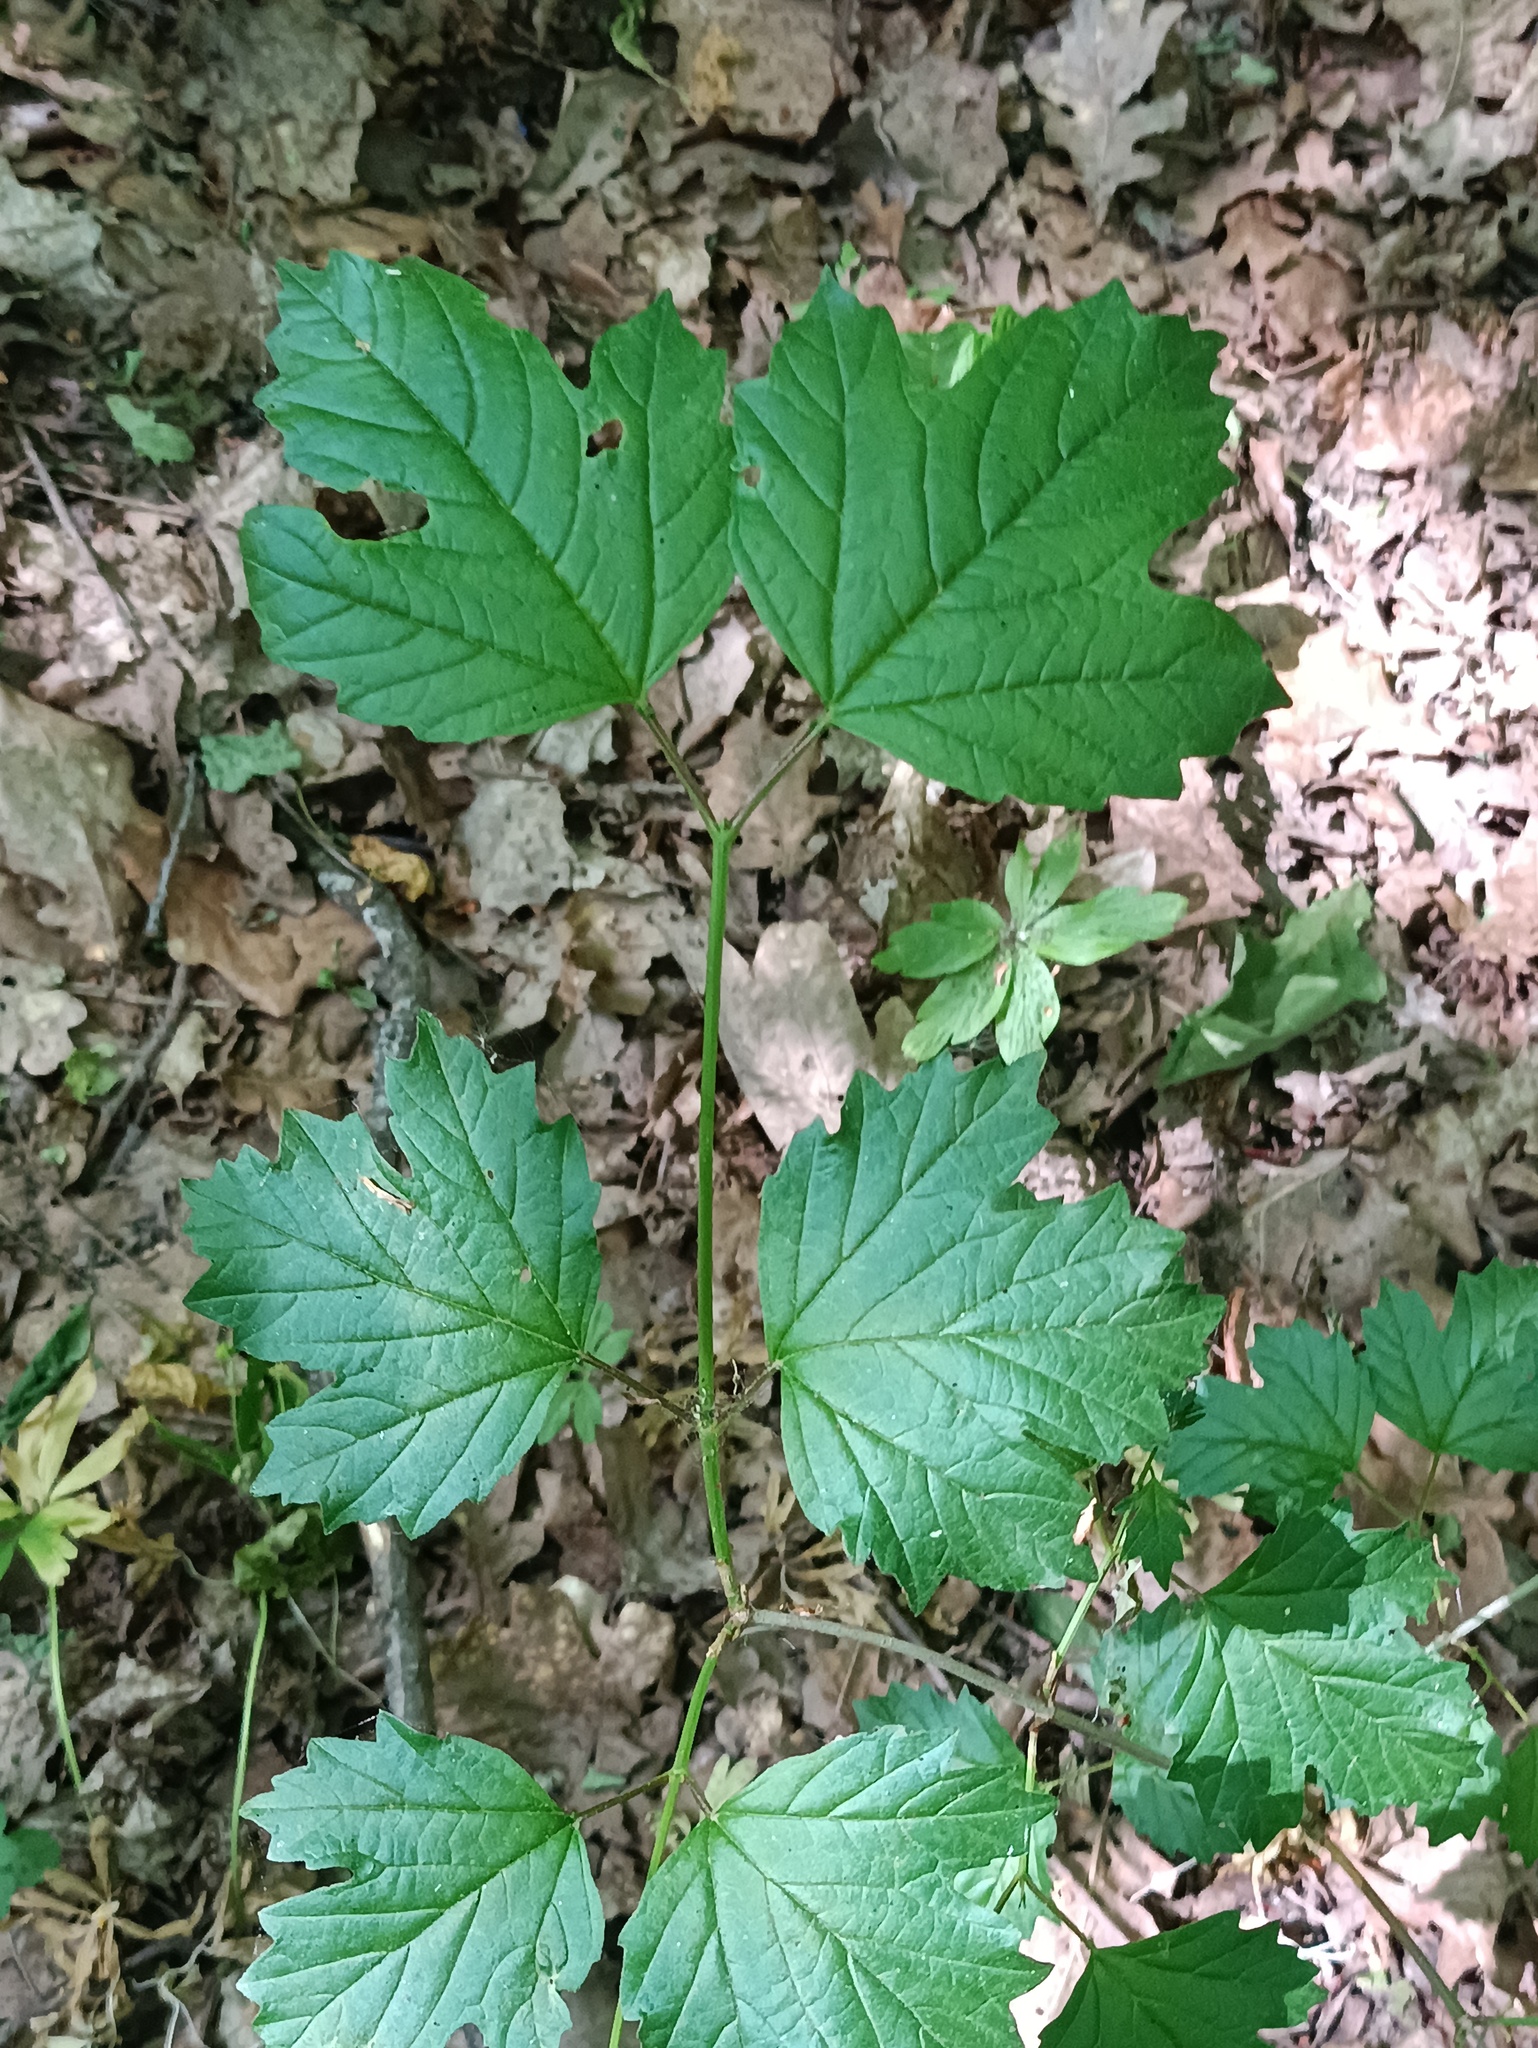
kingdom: Plantae
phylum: Tracheophyta
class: Magnoliopsida
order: Dipsacales
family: Viburnaceae
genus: Viburnum
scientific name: Viburnum opulus
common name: Guelder-rose
